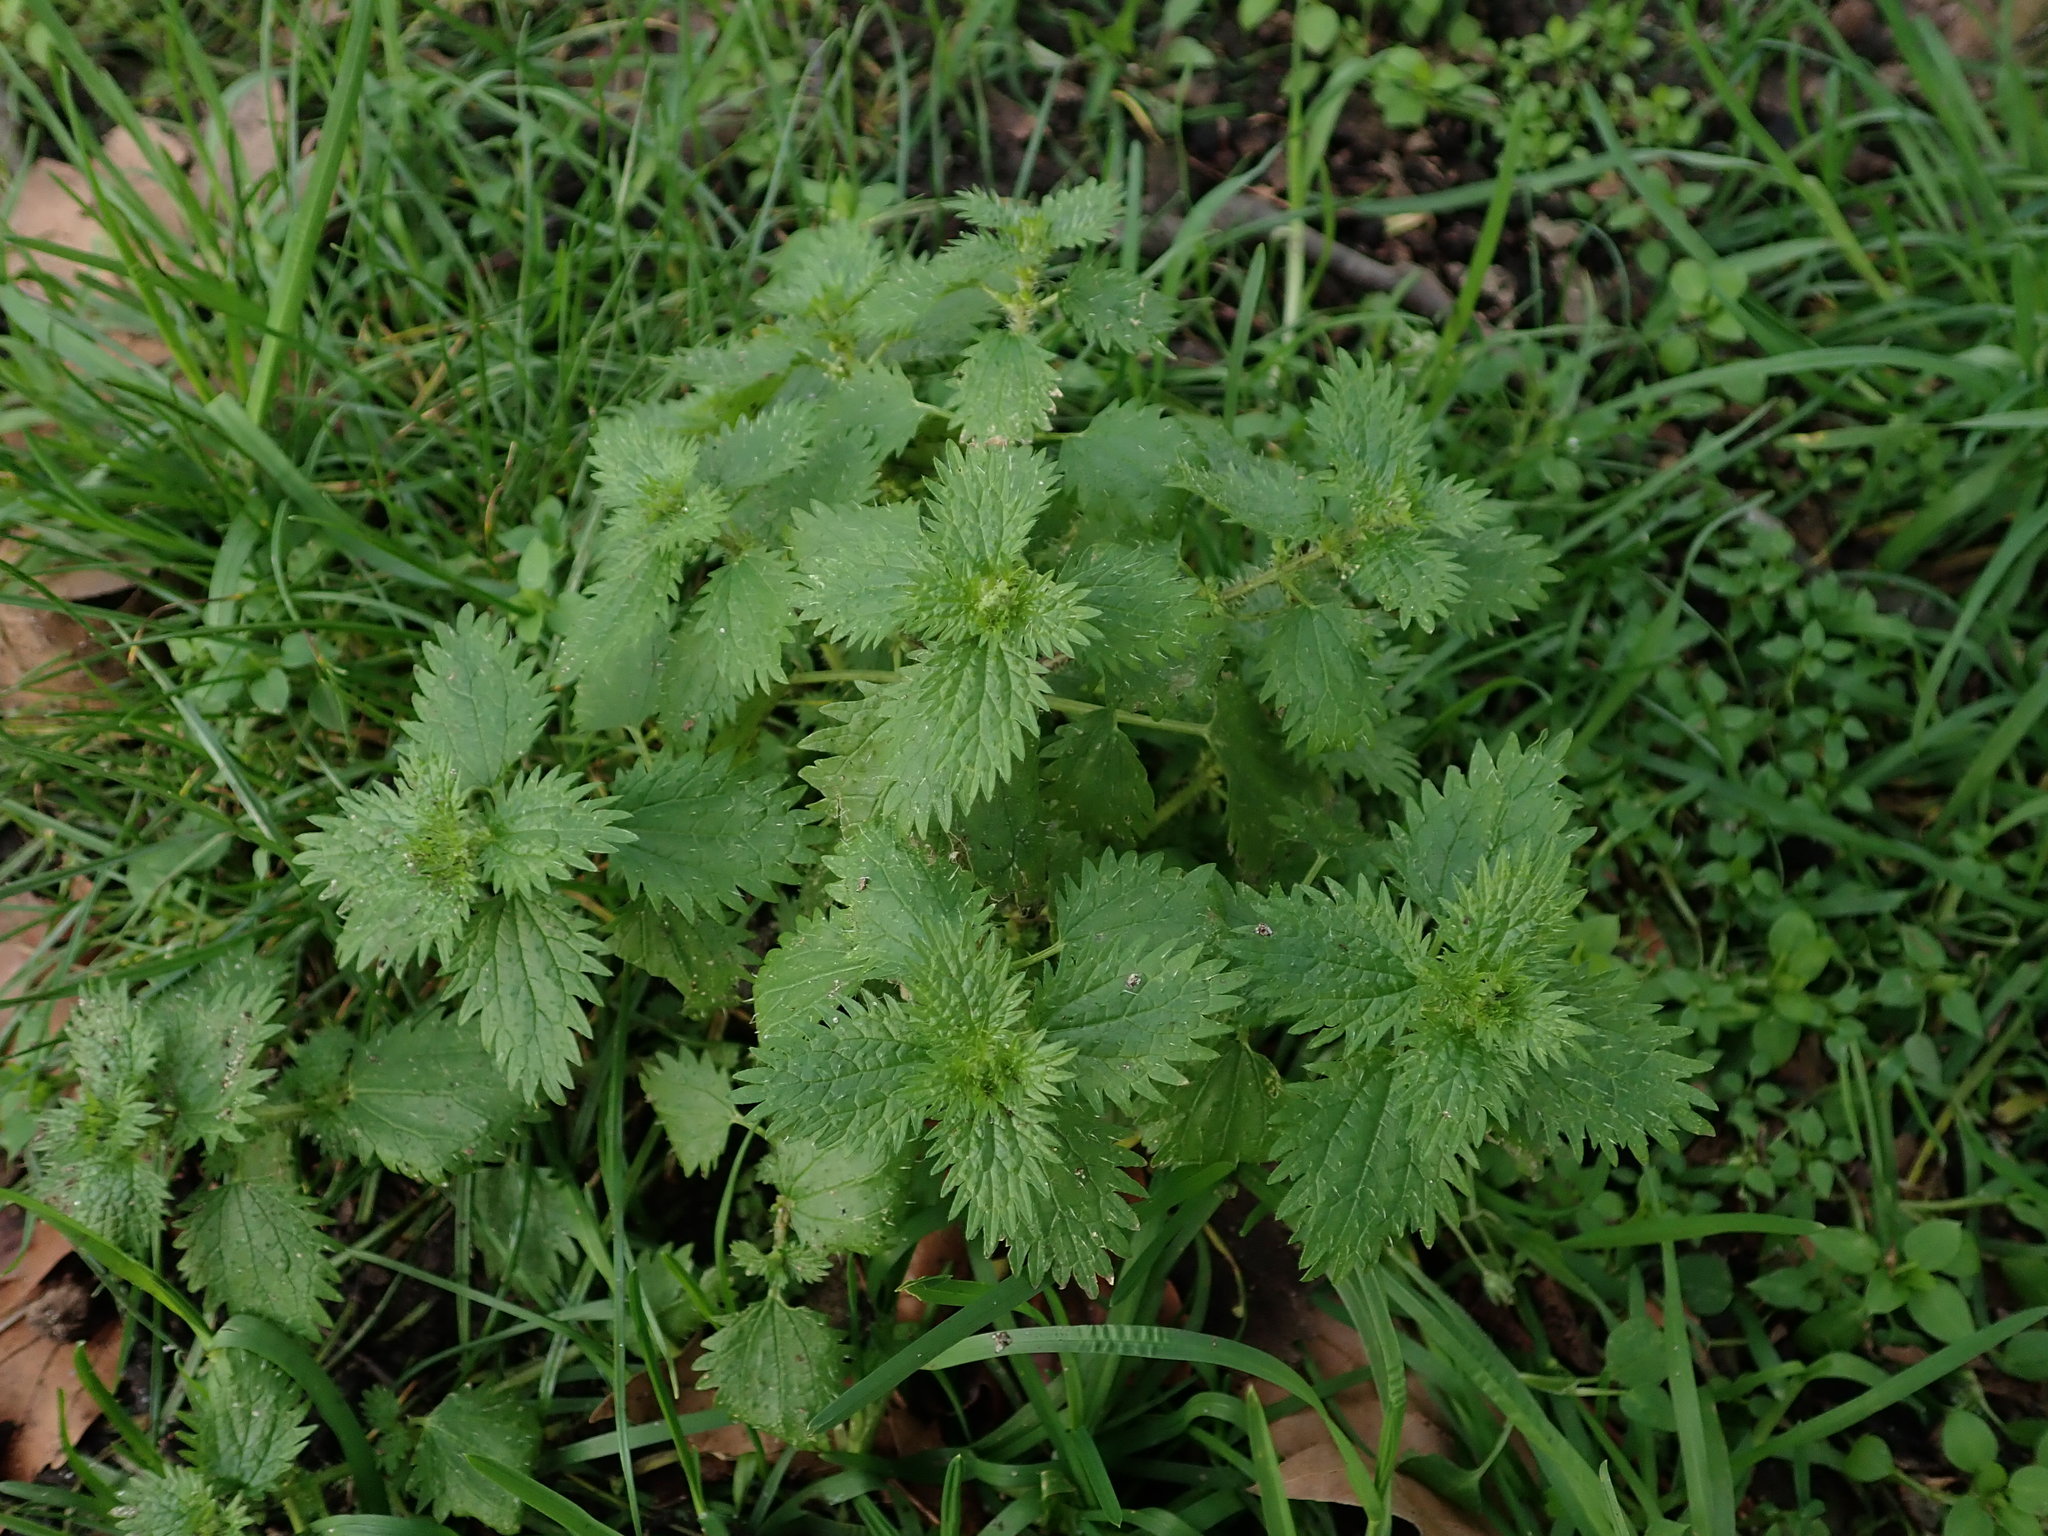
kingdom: Plantae
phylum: Tracheophyta
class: Magnoliopsida
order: Rosales
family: Urticaceae
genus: Urtica
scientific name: Urtica urens
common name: Dwarf nettle
